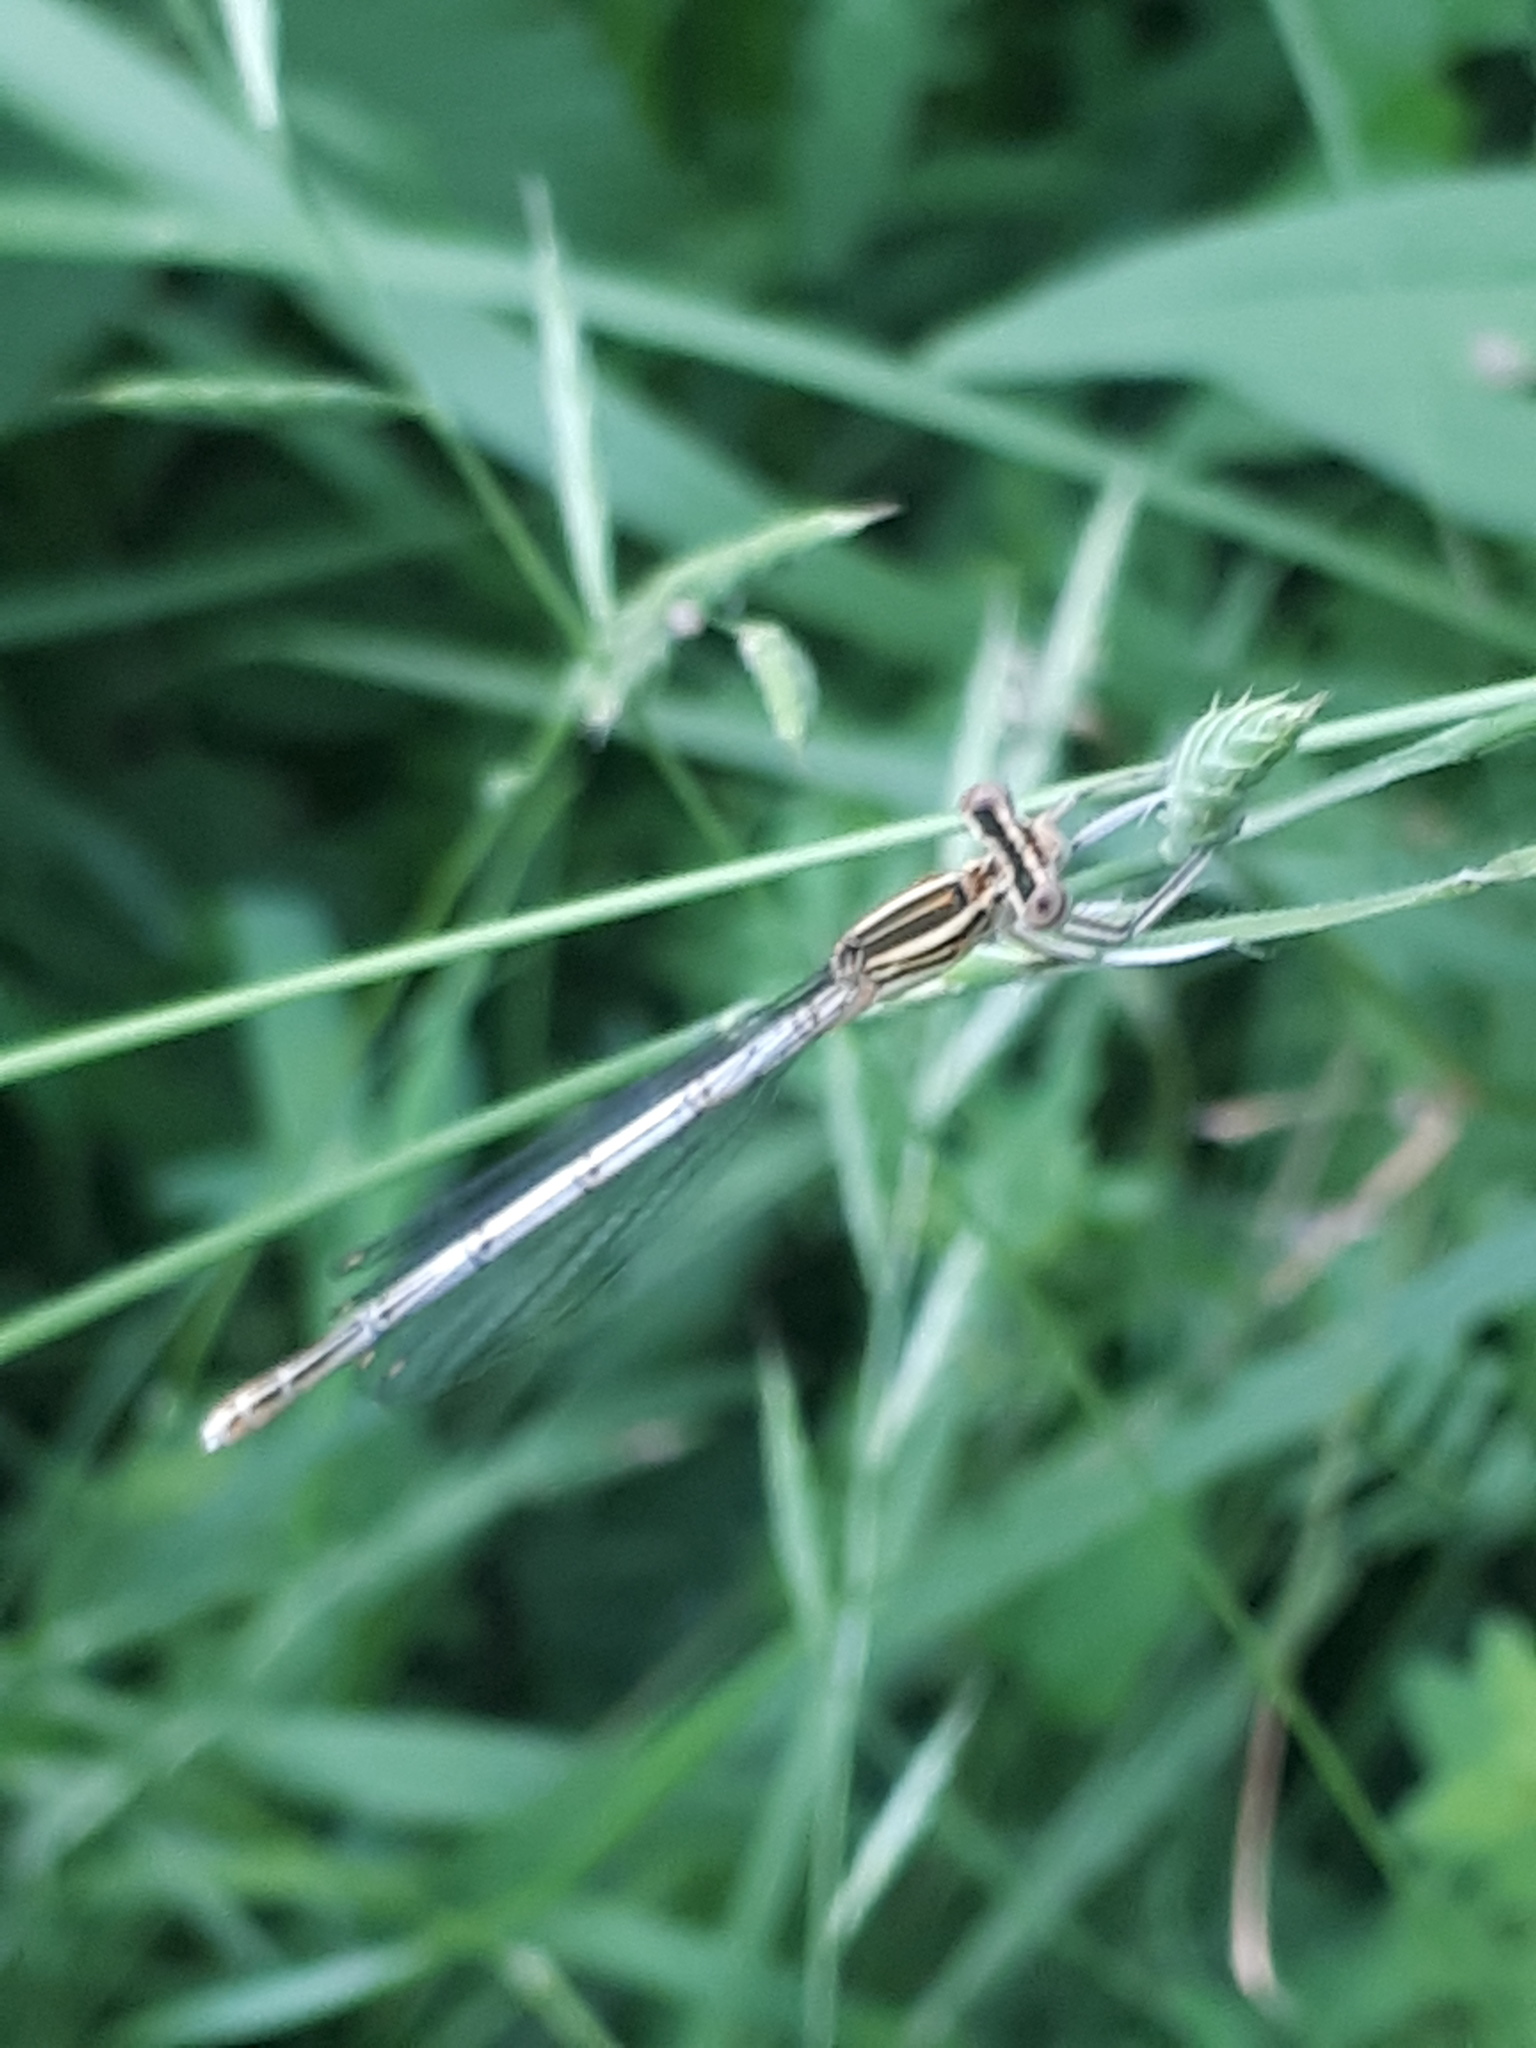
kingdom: Animalia
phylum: Arthropoda
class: Insecta
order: Odonata
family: Platycnemididae
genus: Platycnemis
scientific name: Platycnemis pennipes
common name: White-legged damselfly
